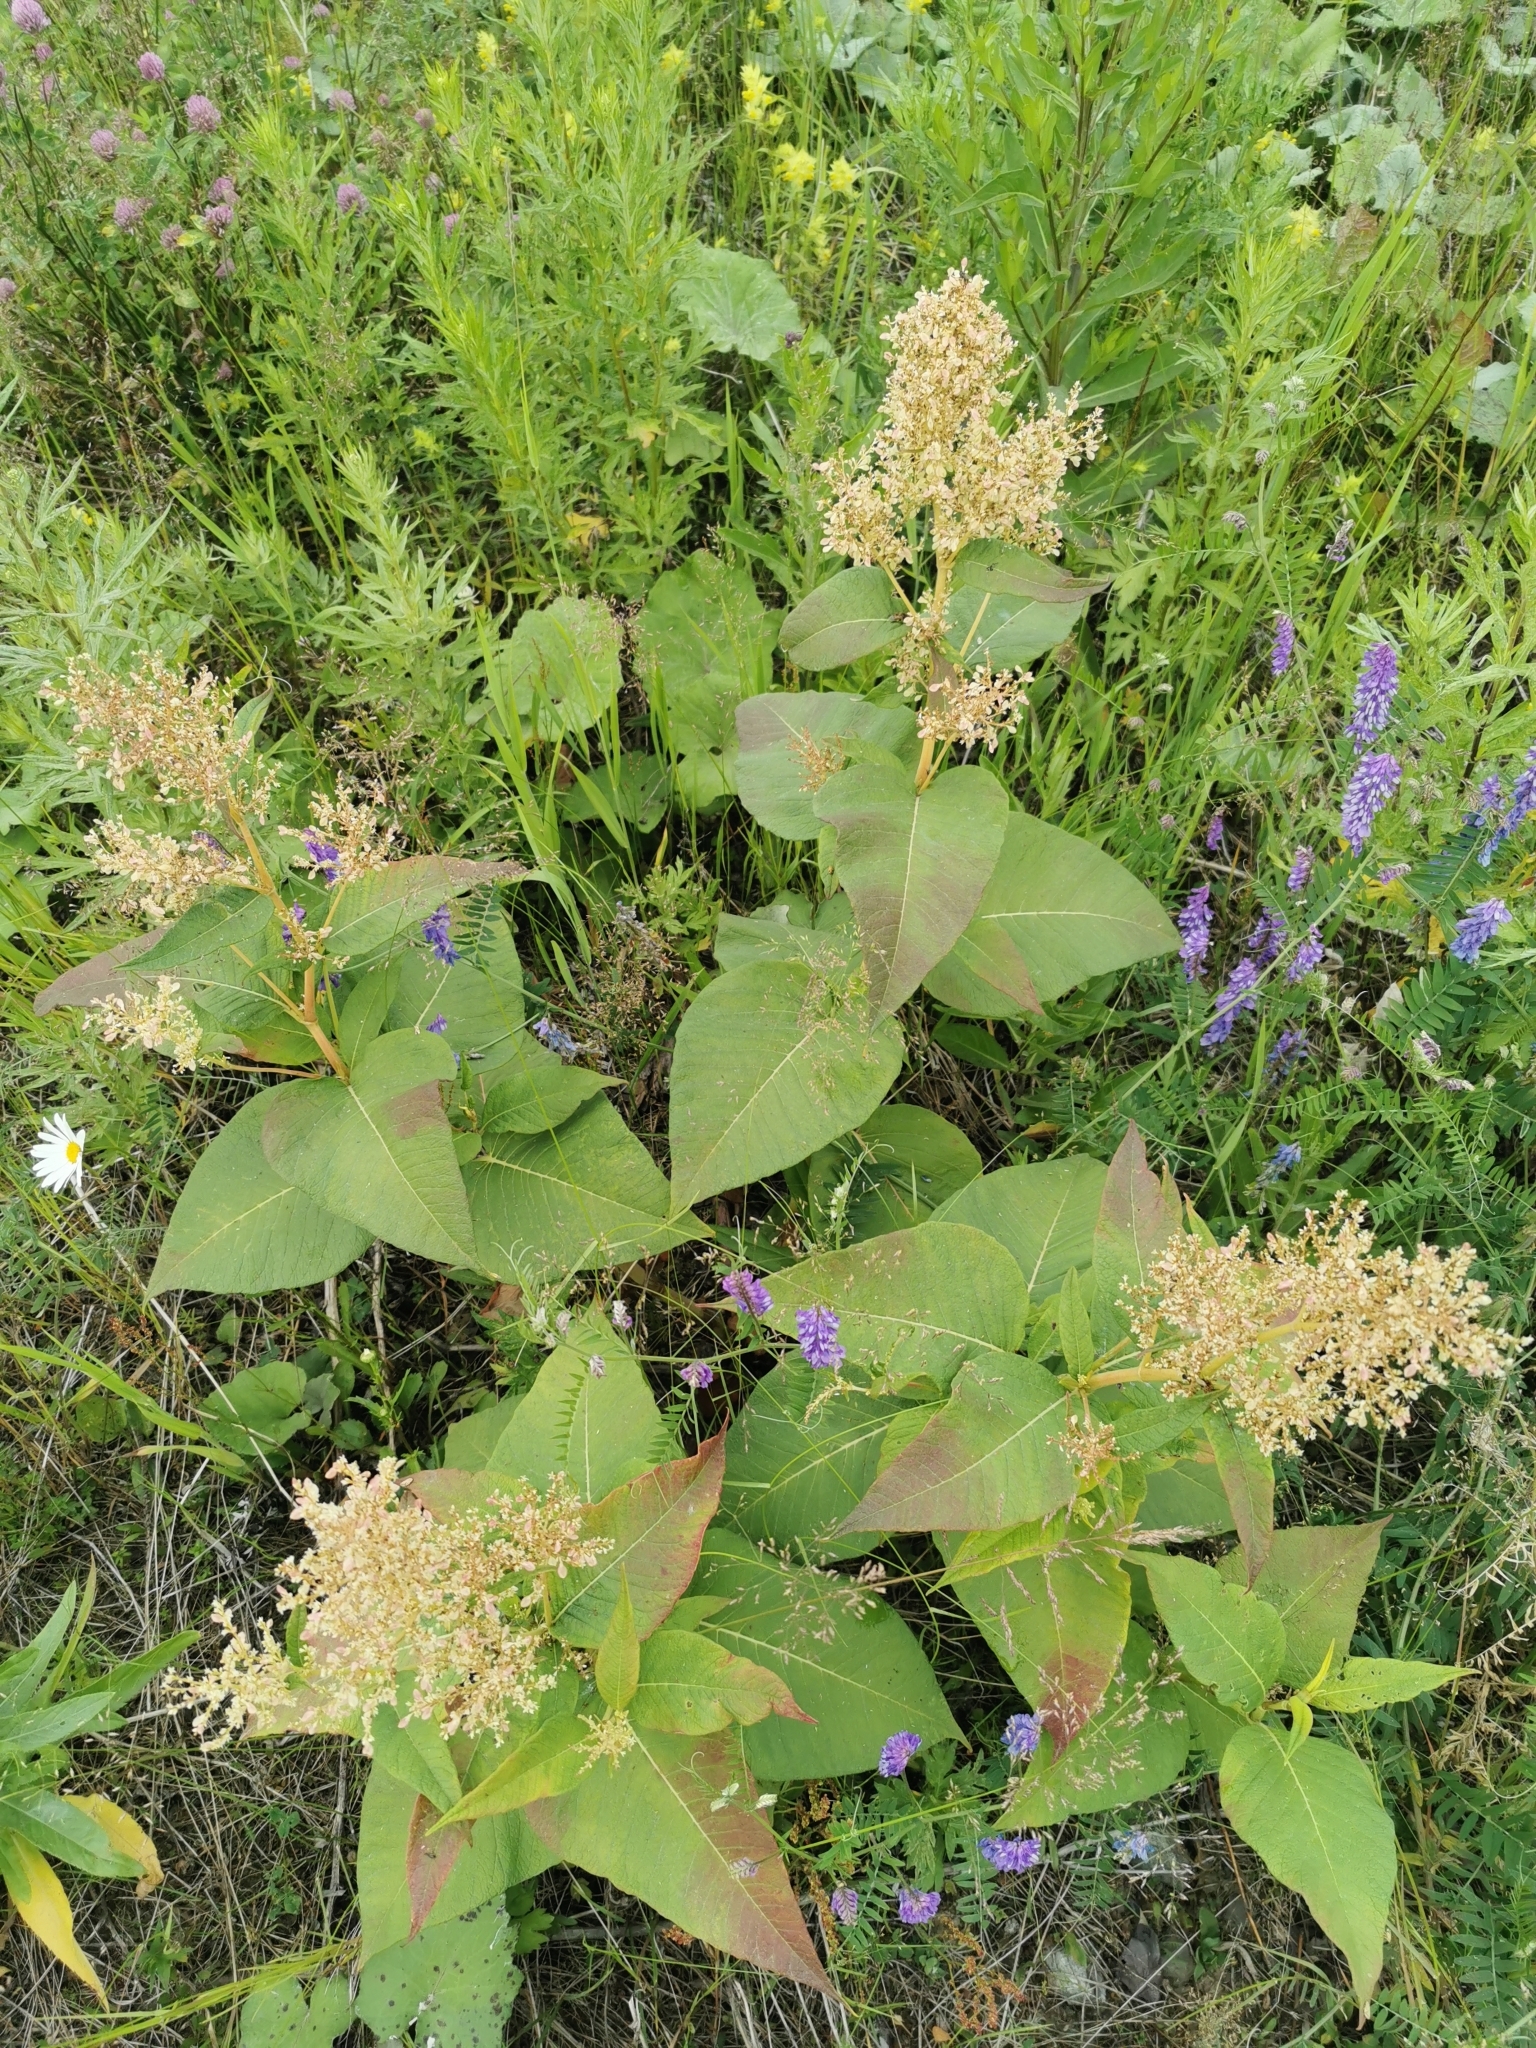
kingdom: Plantae
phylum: Tracheophyta
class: Magnoliopsida
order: Caryophyllales
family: Polygonaceae
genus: Koenigia
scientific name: Koenigia weyrichii
